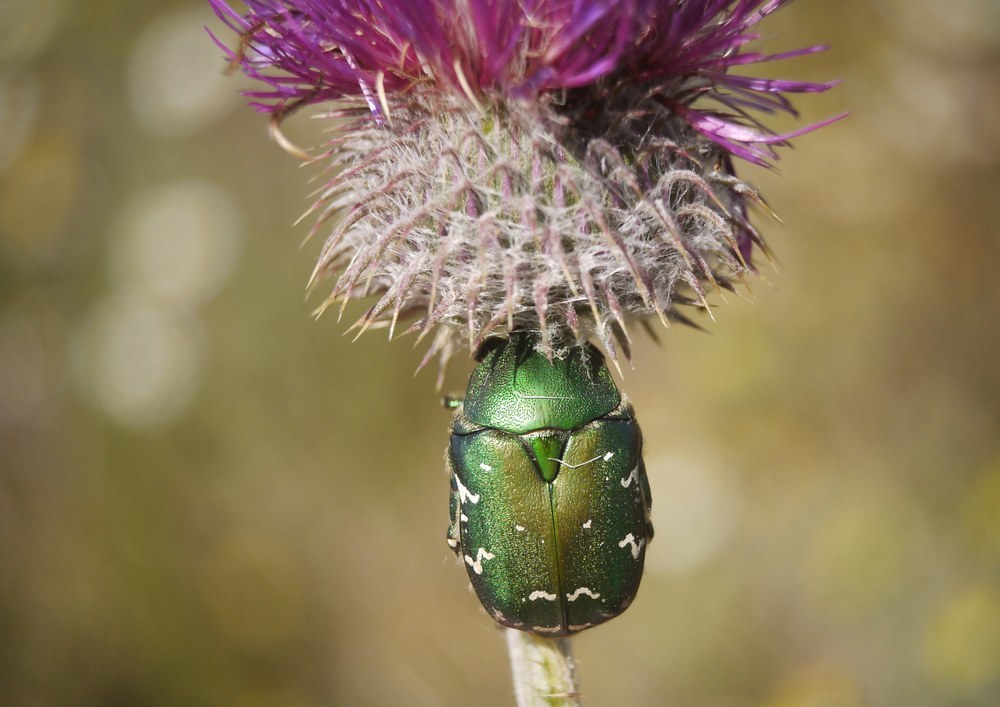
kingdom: Animalia
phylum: Arthropoda
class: Insecta
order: Coleoptera
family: Scarabaeidae
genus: Protaetia
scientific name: Protaetia ungarica
